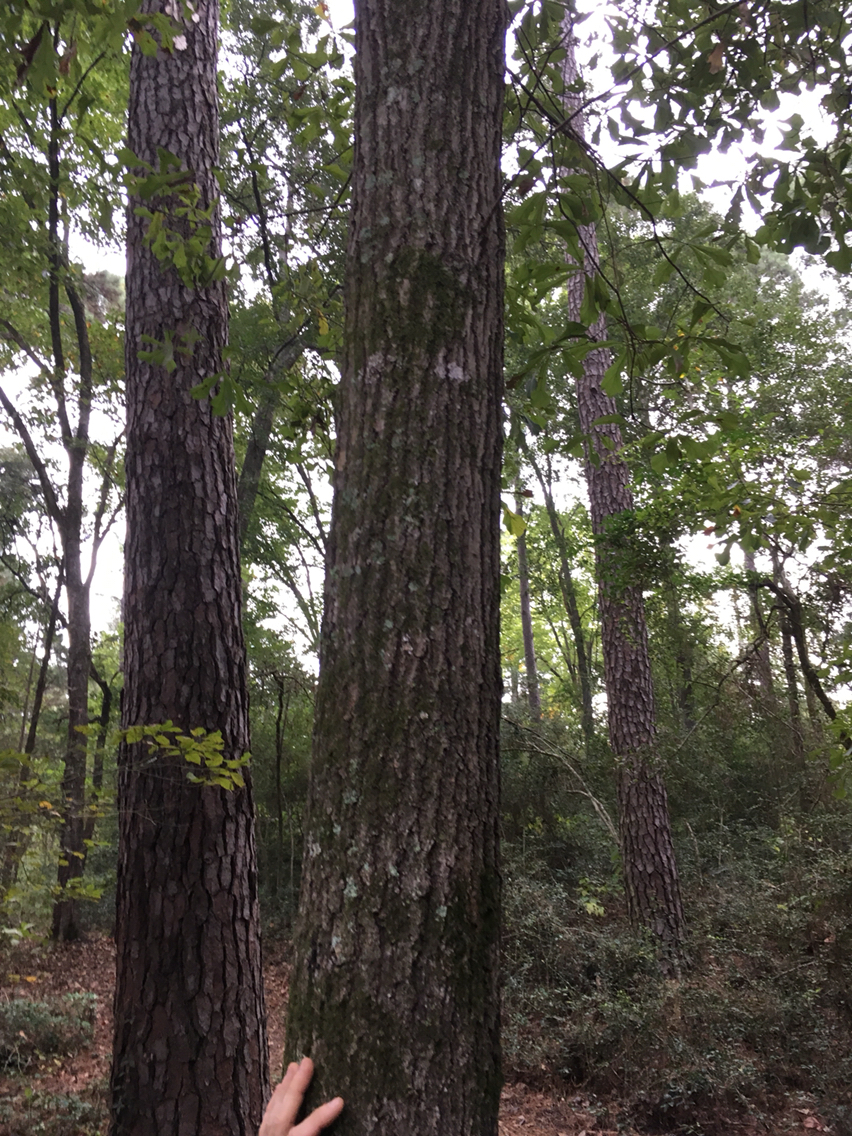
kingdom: Plantae
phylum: Tracheophyta
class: Magnoliopsida
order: Fagales
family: Fagaceae
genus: Quercus
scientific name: Quercus nigra
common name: Water oak
